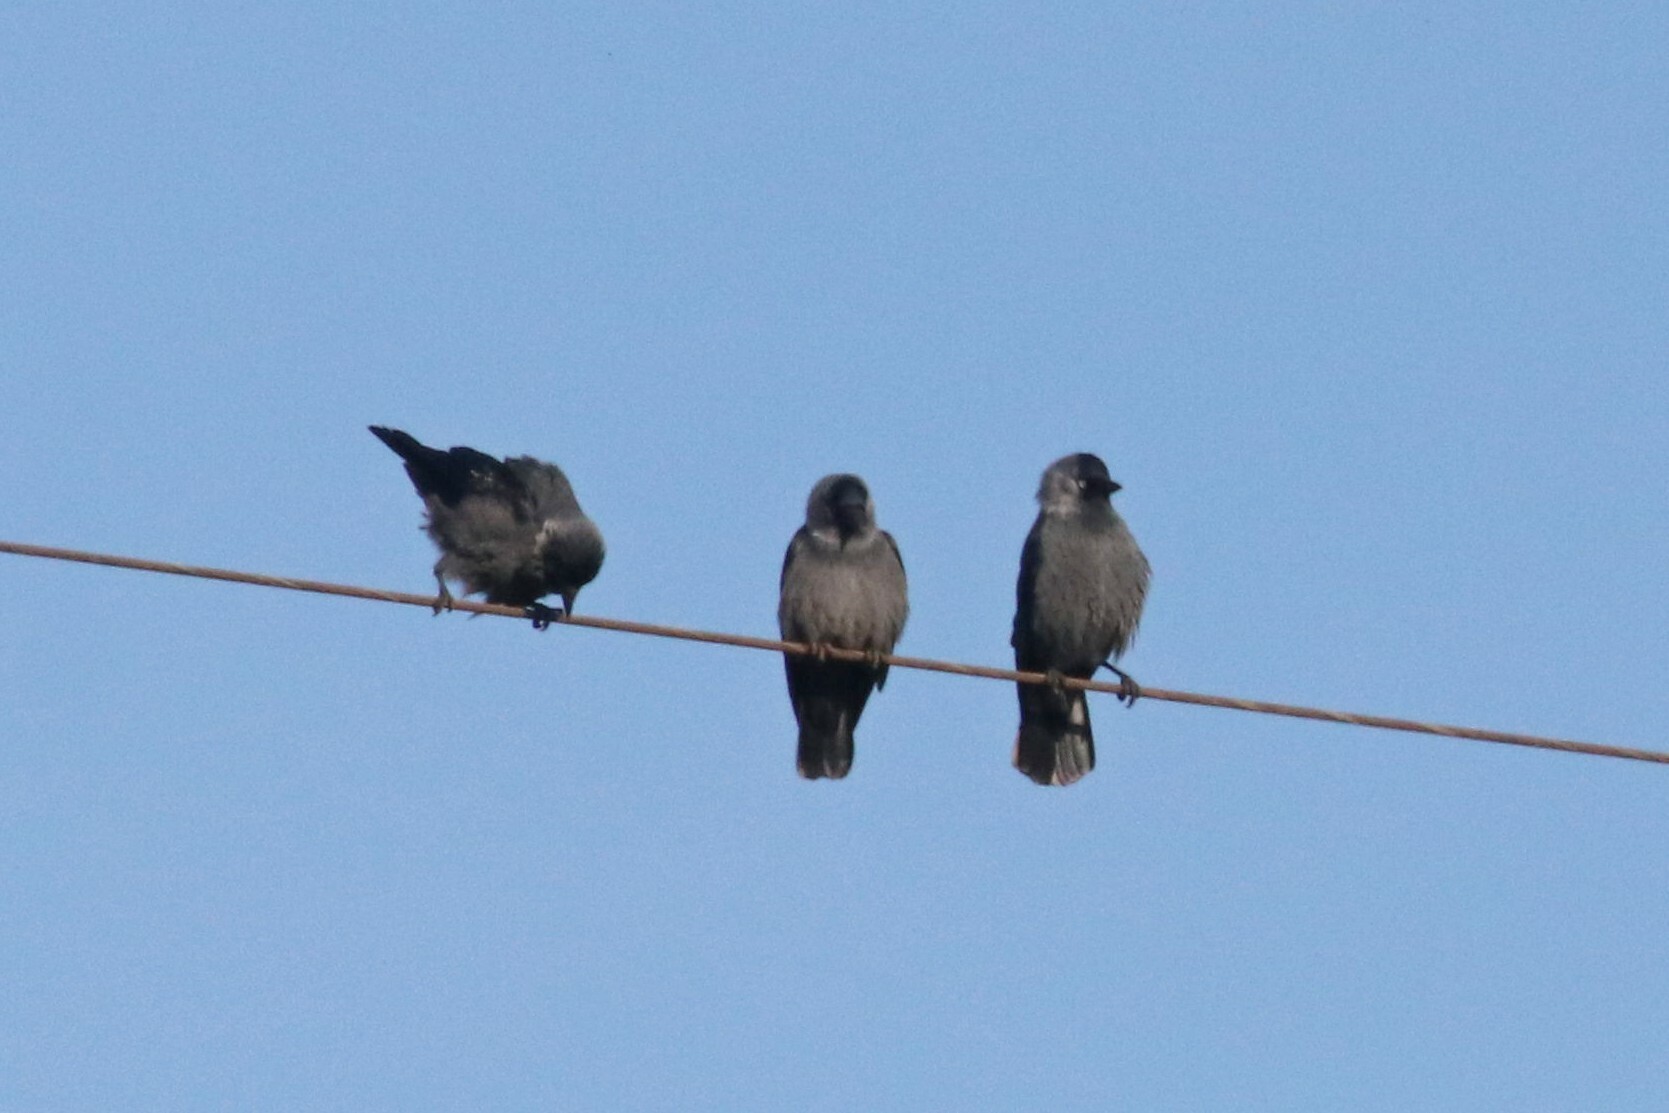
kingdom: Animalia
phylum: Chordata
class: Aves
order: Passeriformes
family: Corvidae
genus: Coloeus
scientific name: Coloeus monedula
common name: Western jackdaw
